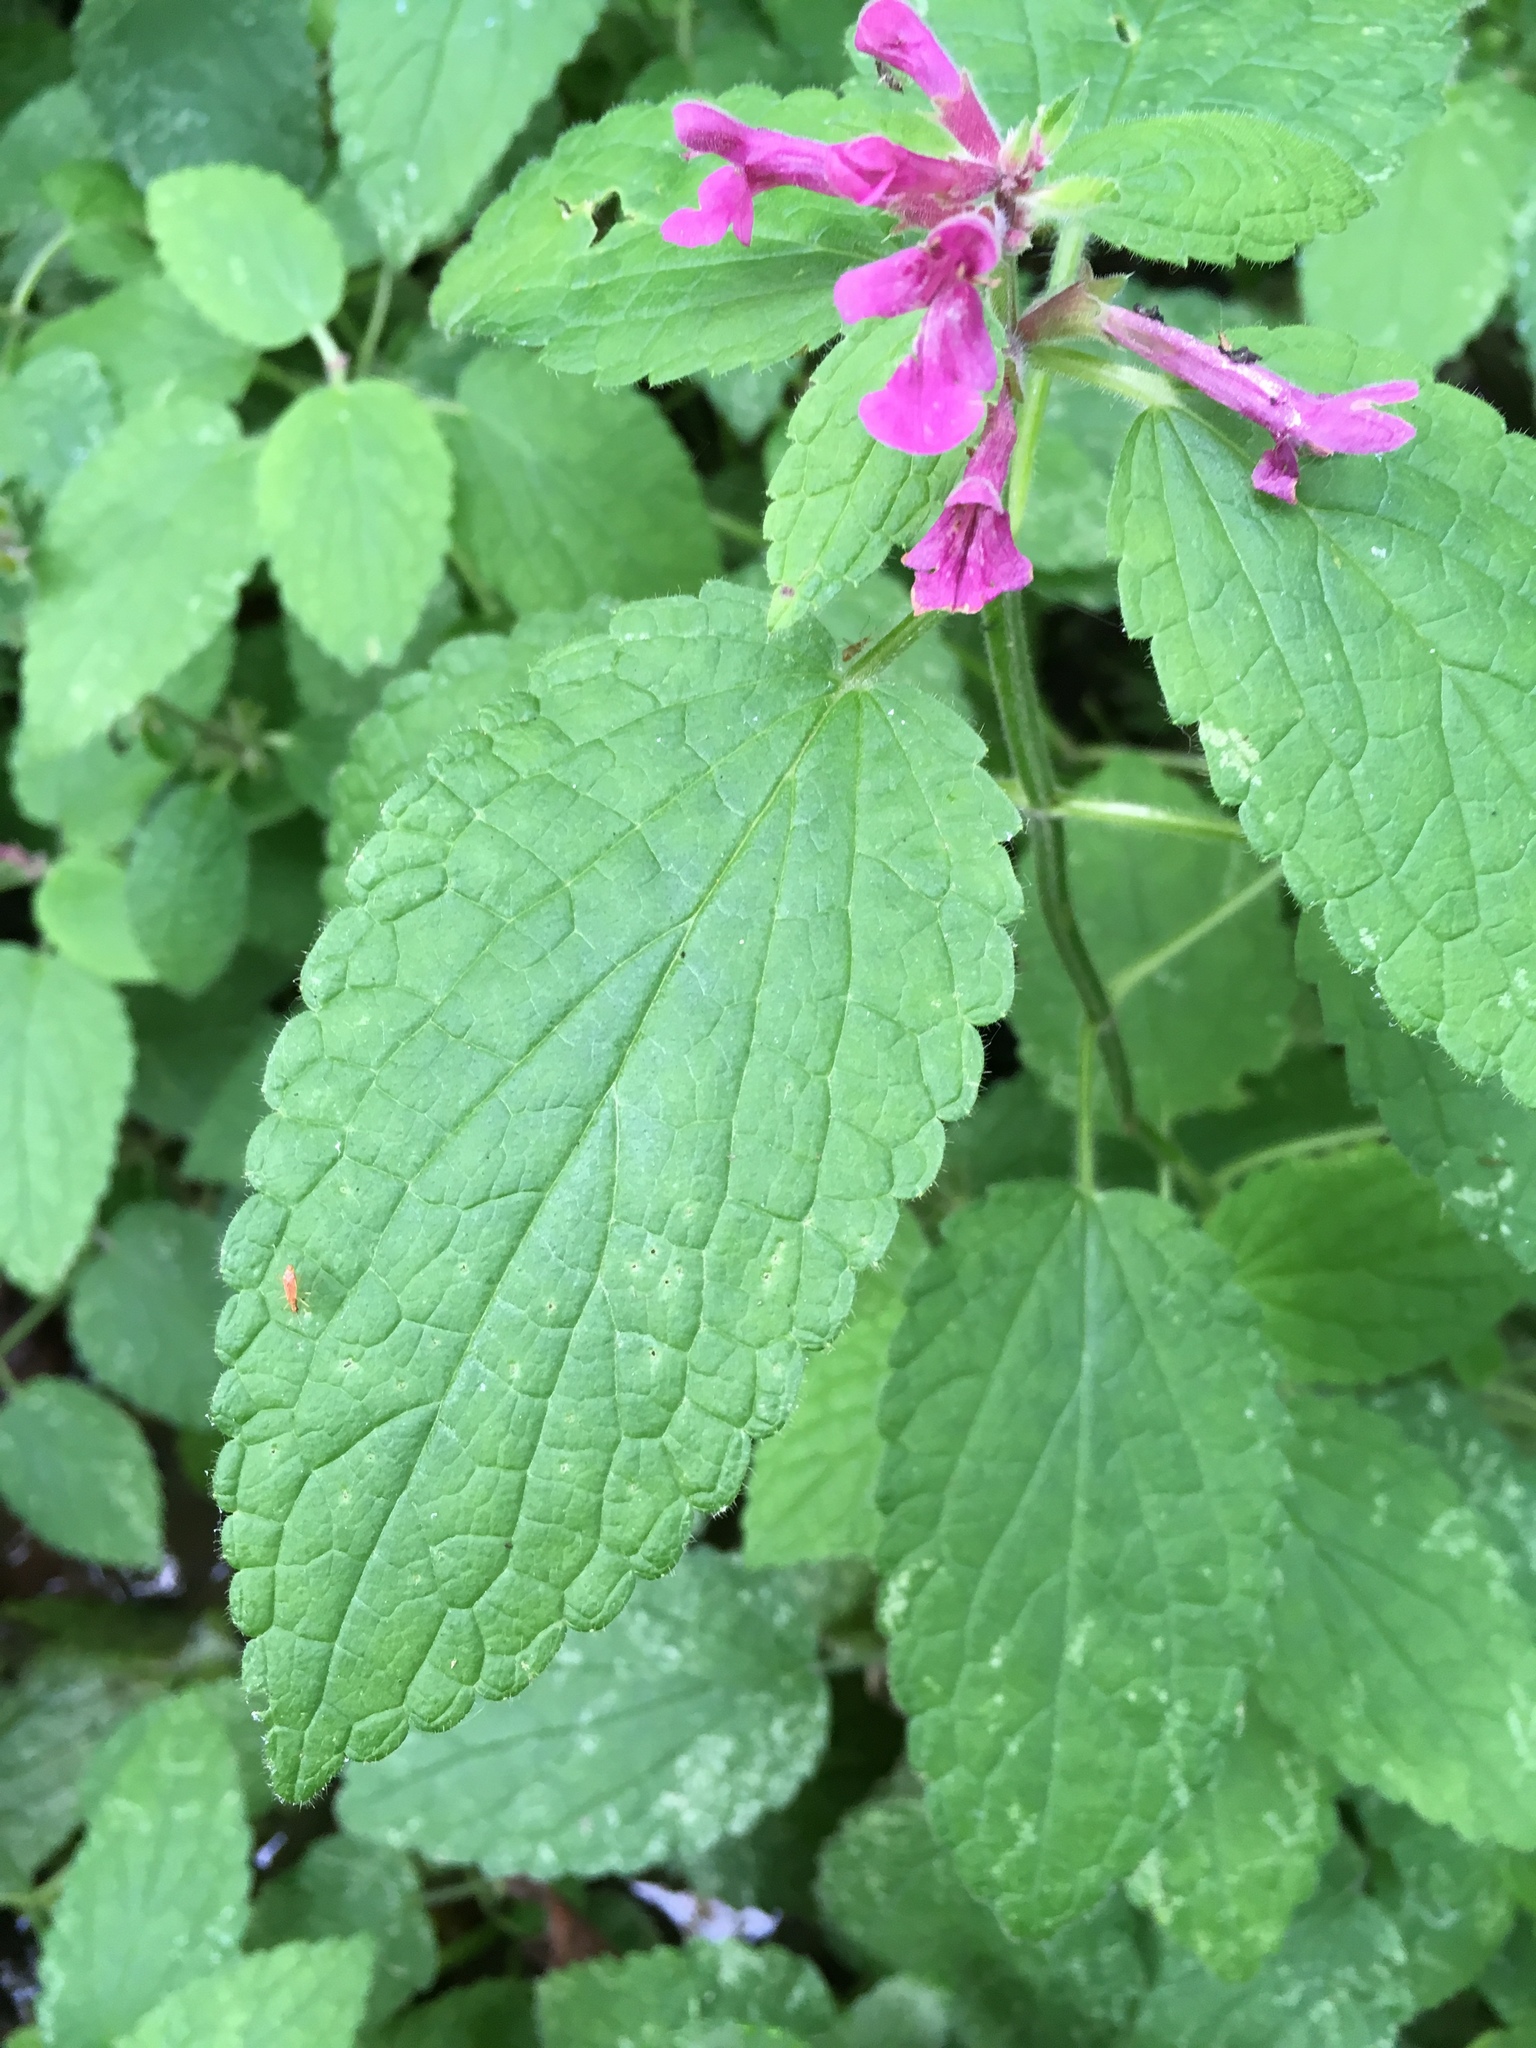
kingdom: Plantae
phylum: Tracheophyta
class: Magnoliopsida
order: Lamiales
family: Lamiaceae
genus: Stachys
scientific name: Stachys chamissonis
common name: Coastal hedge-nettle
